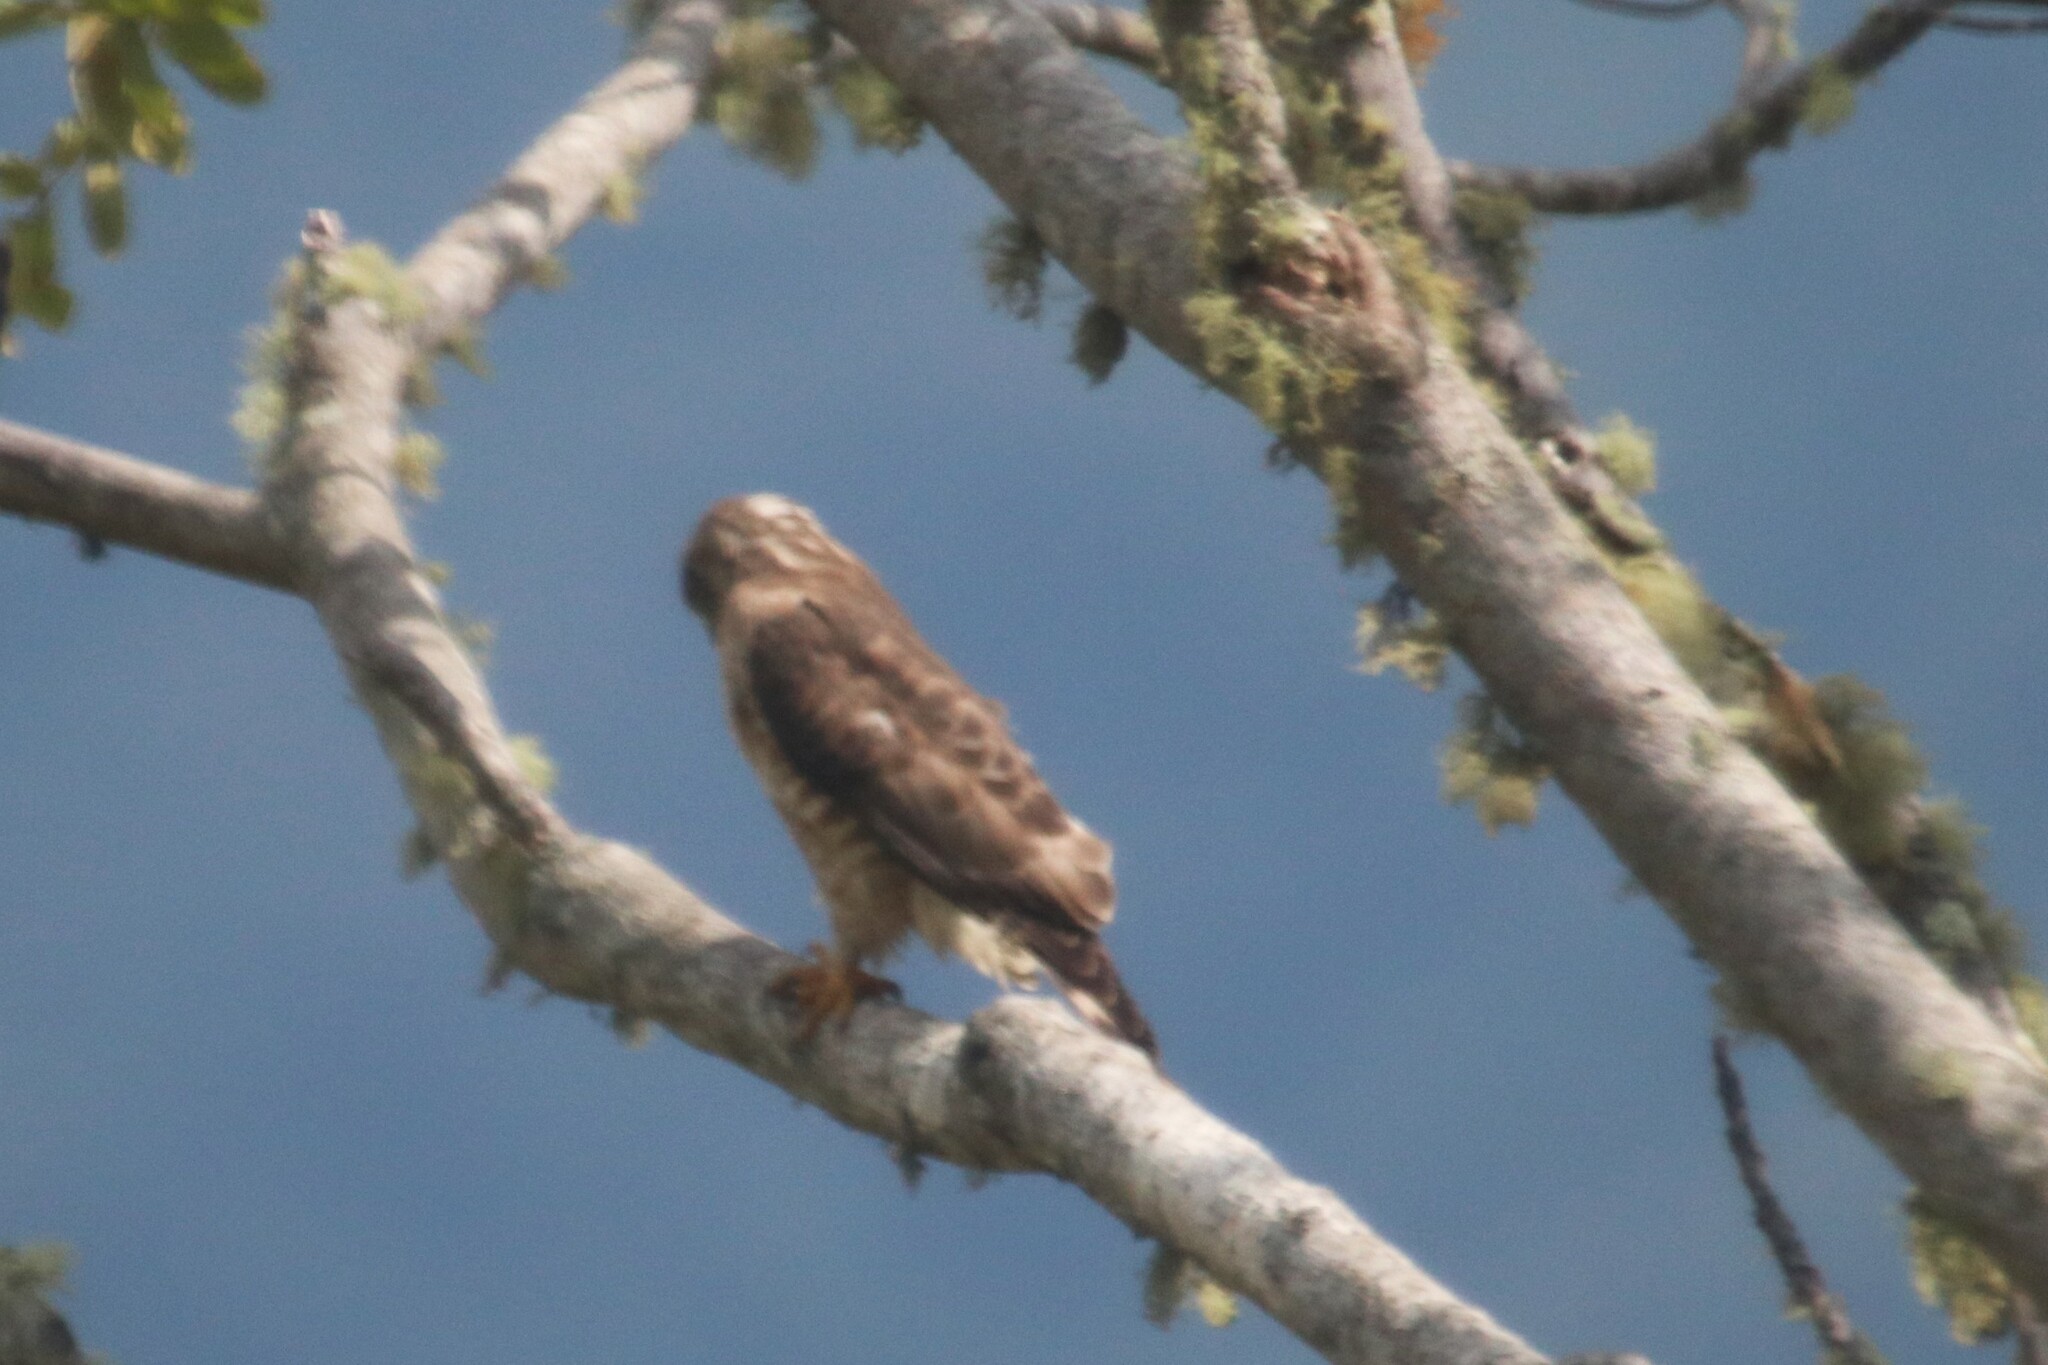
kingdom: Animalia
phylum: Chordata
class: Aves
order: Accipitriformes
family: Accipitridae
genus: Buteo
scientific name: Buteo platypterus
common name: Broad-winged hawk
